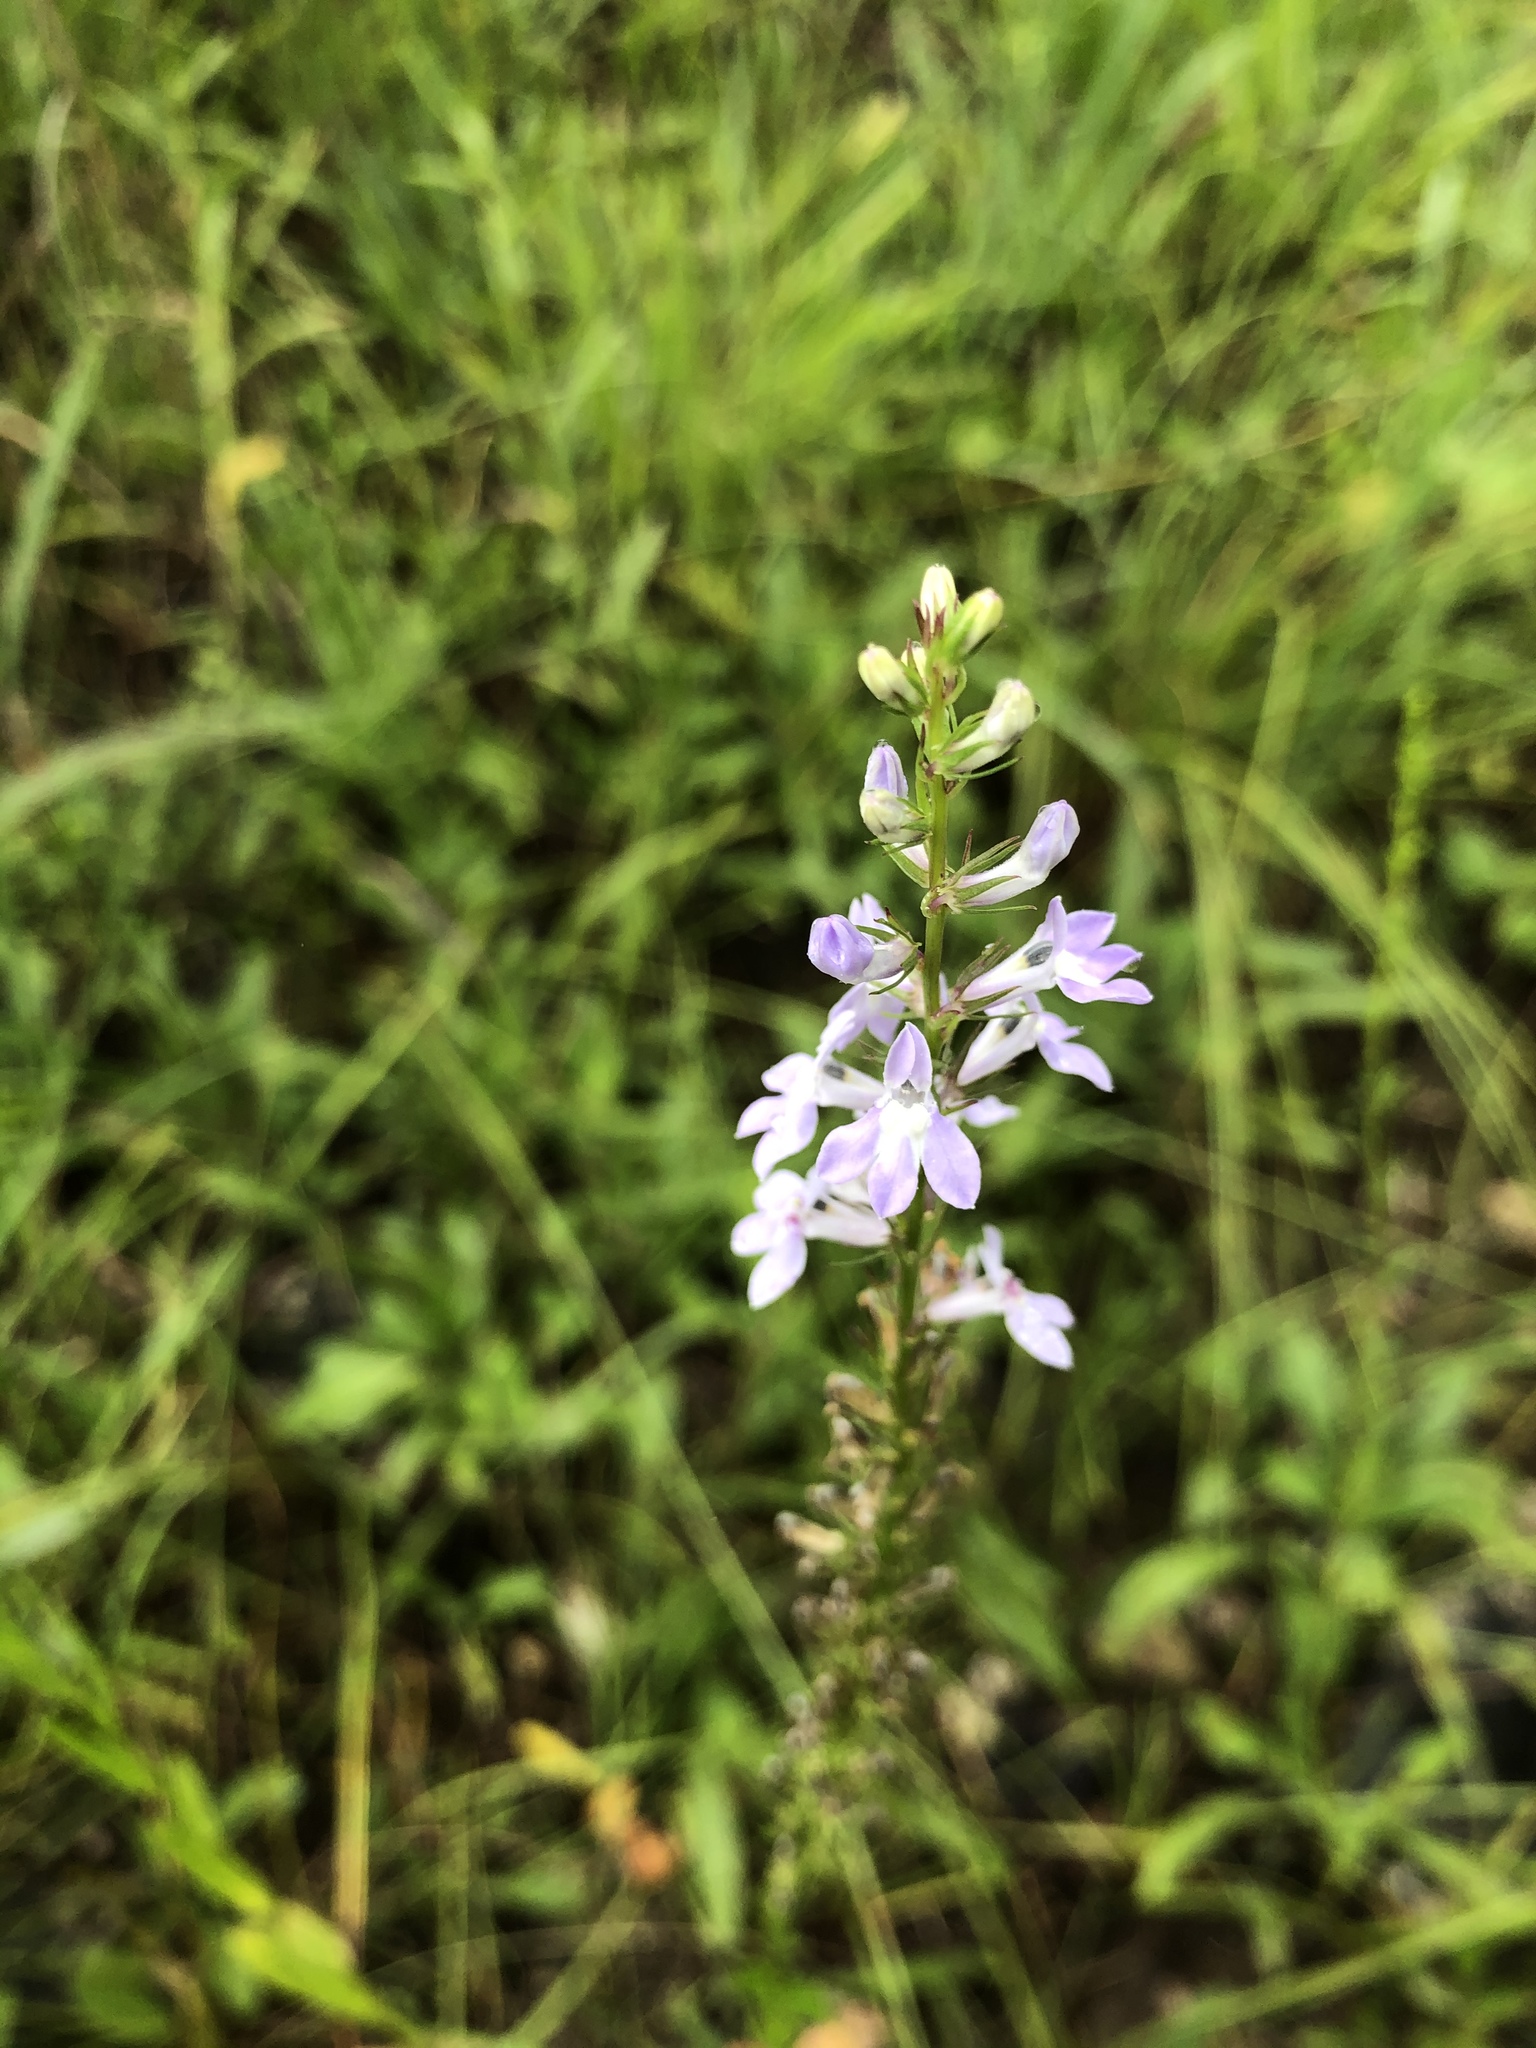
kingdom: Plantae
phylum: Tracheophyta
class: Magnoliopsida
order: Asterales
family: Campanulaceae
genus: Lobelia
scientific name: Lobelia spicata
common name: Pale-spike lobelia
